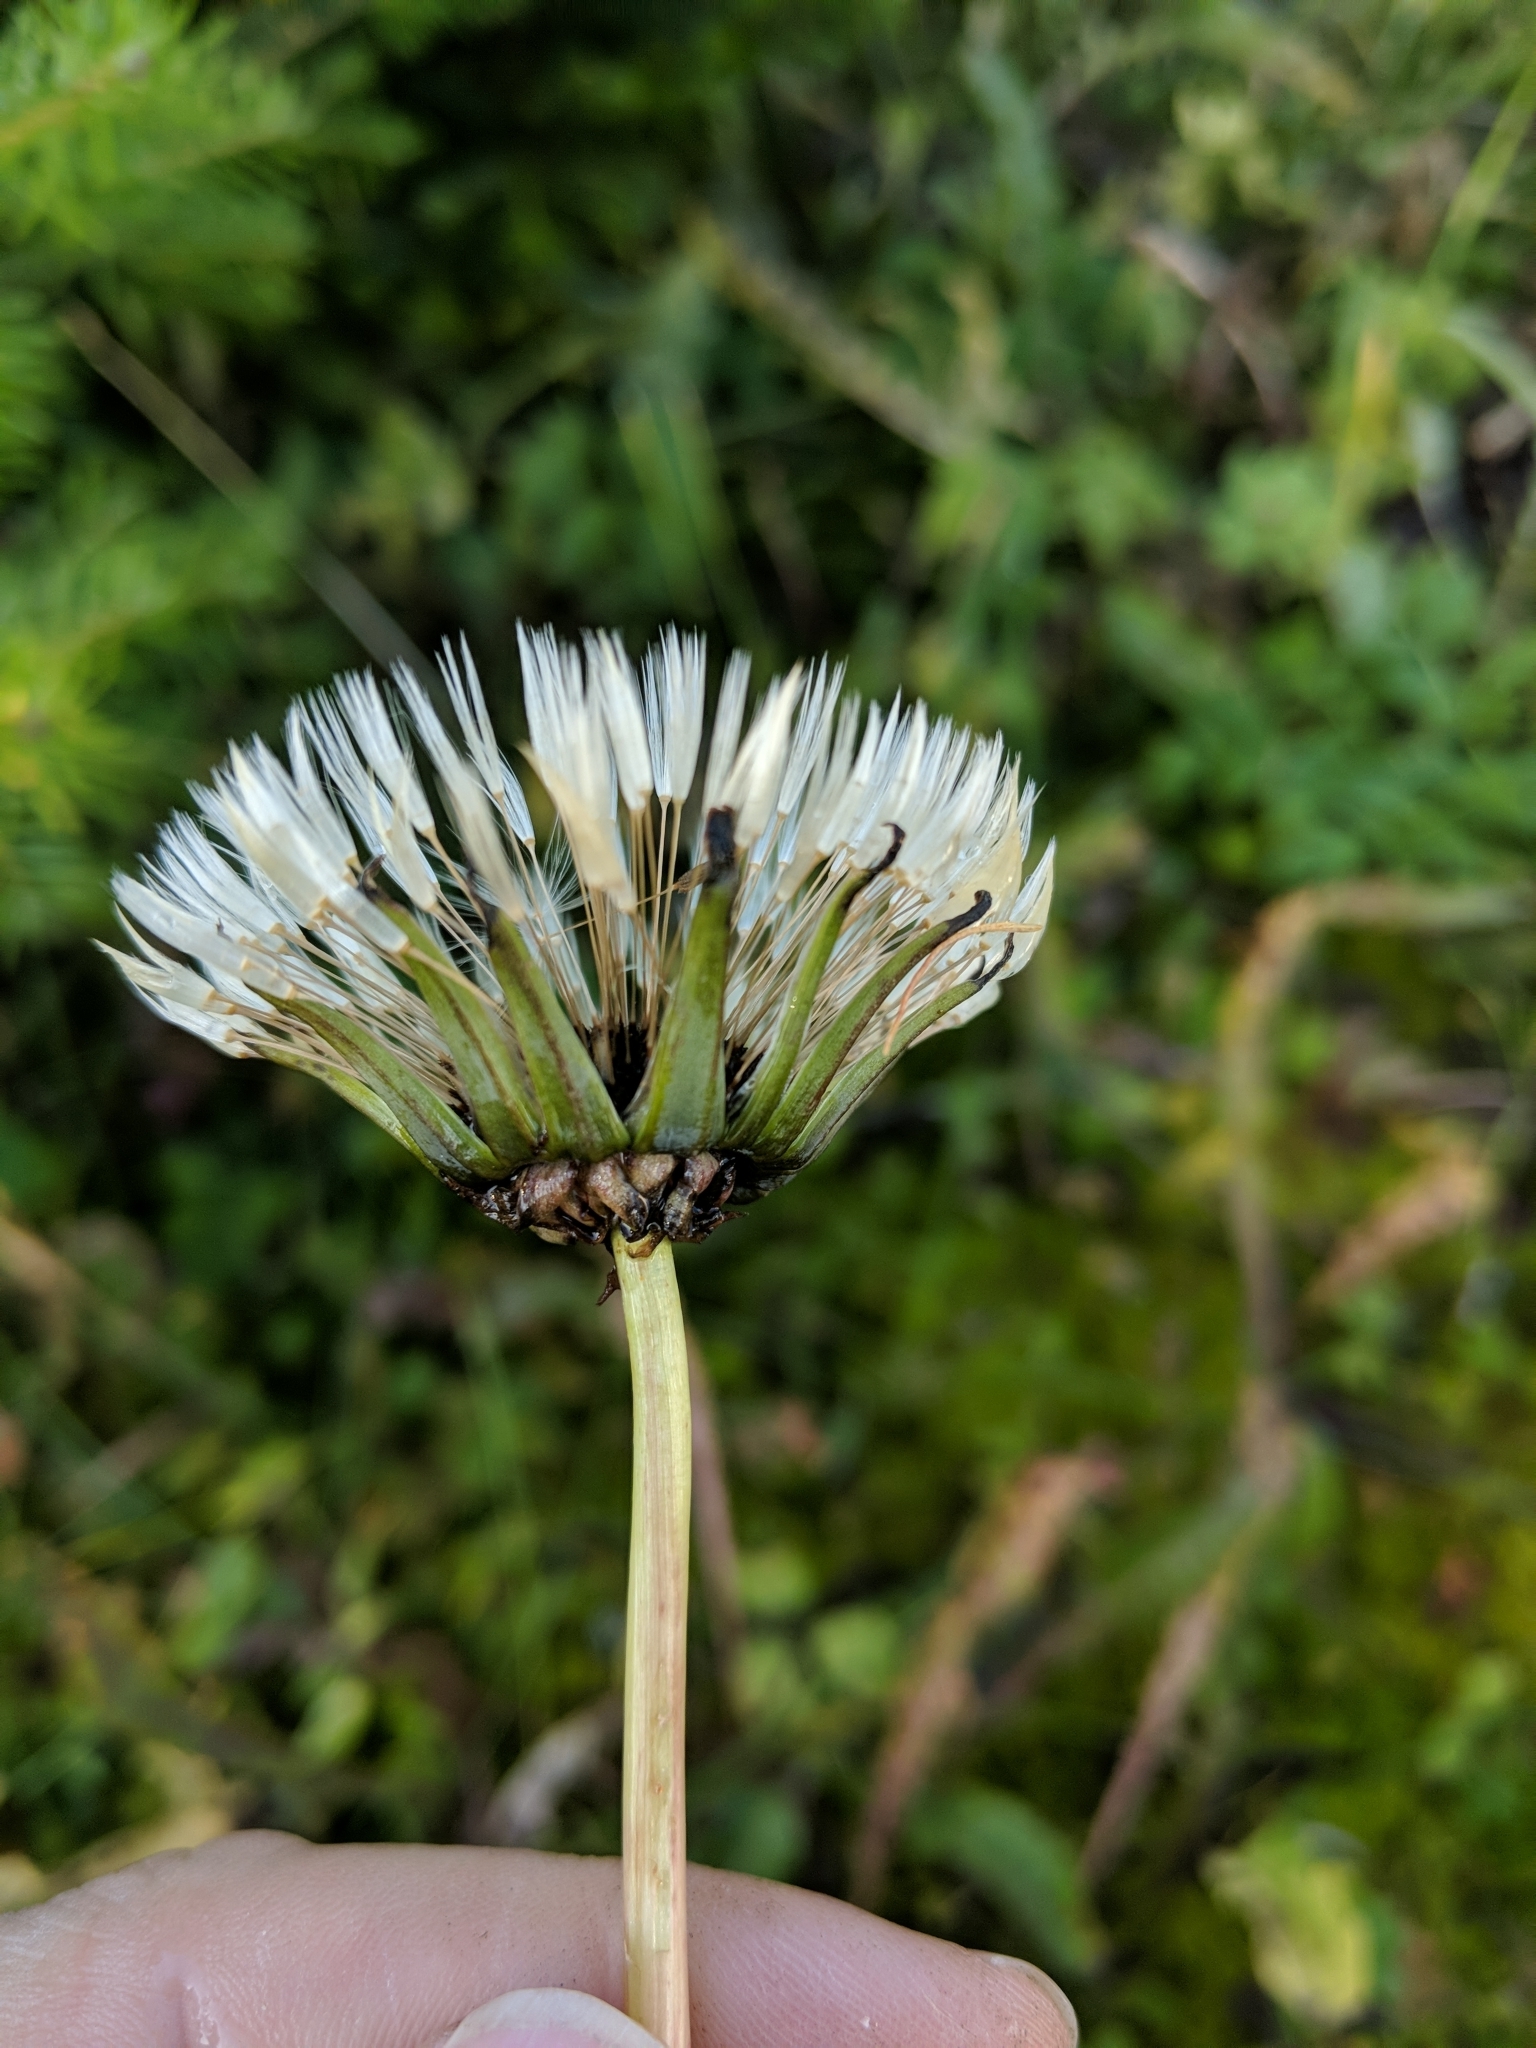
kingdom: Plantae
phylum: Tracheophyta
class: Magnoliopsida
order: Asterales
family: Asteraceae
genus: Taraxacum
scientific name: Taraxacum ceratophorum
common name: Horn-bearing dandelion
